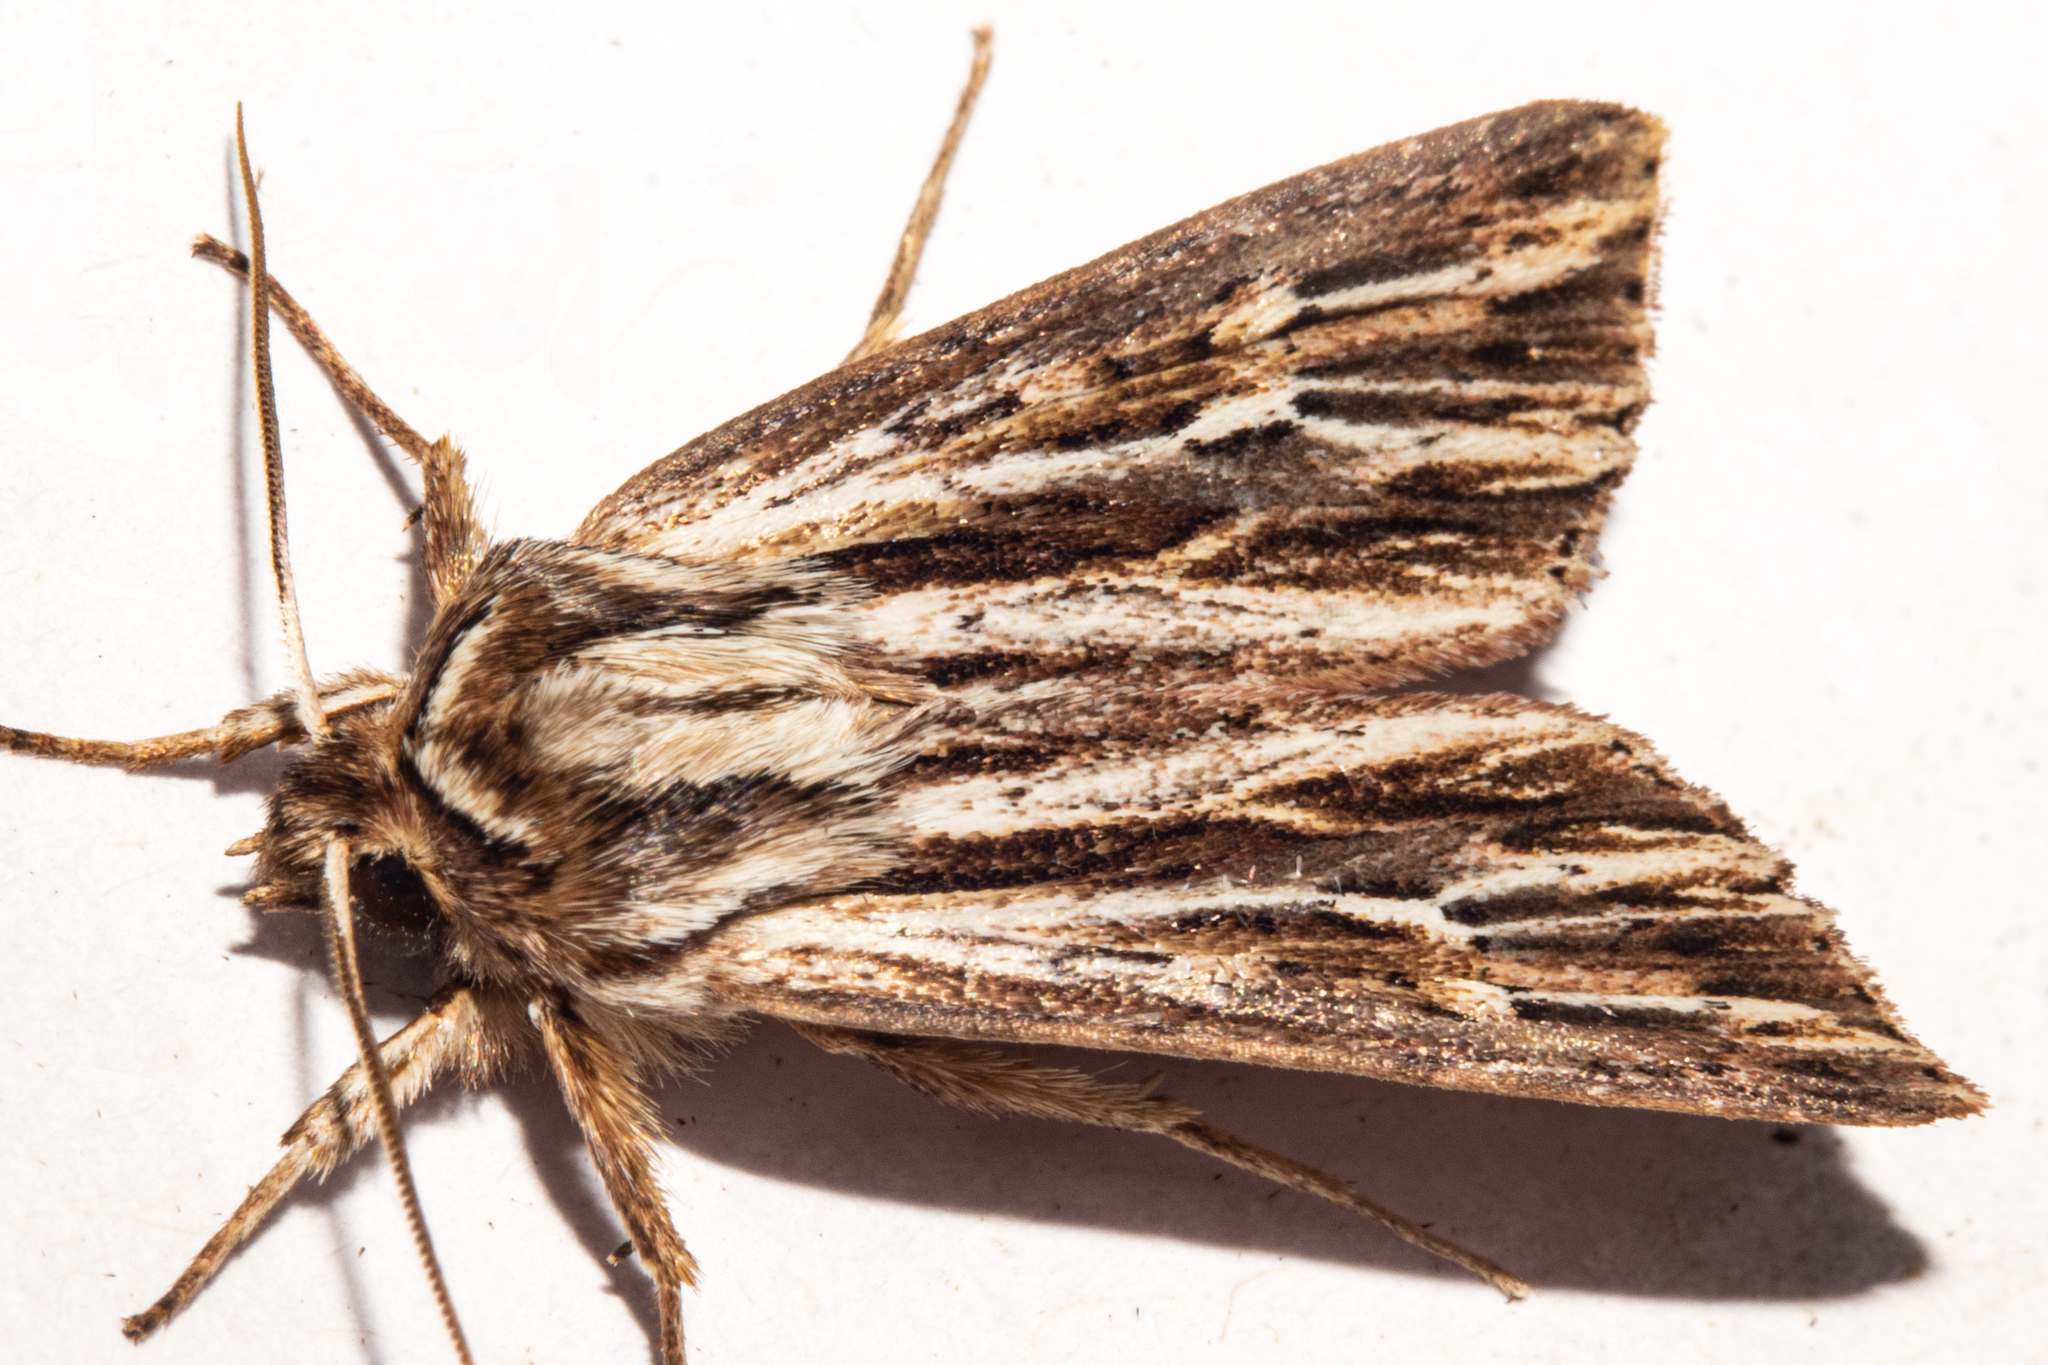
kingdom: Animalia
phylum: Arthropoda
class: Insecta
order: Lepidoptera
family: Noctuidae
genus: Ichneutica
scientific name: Ichneutica
